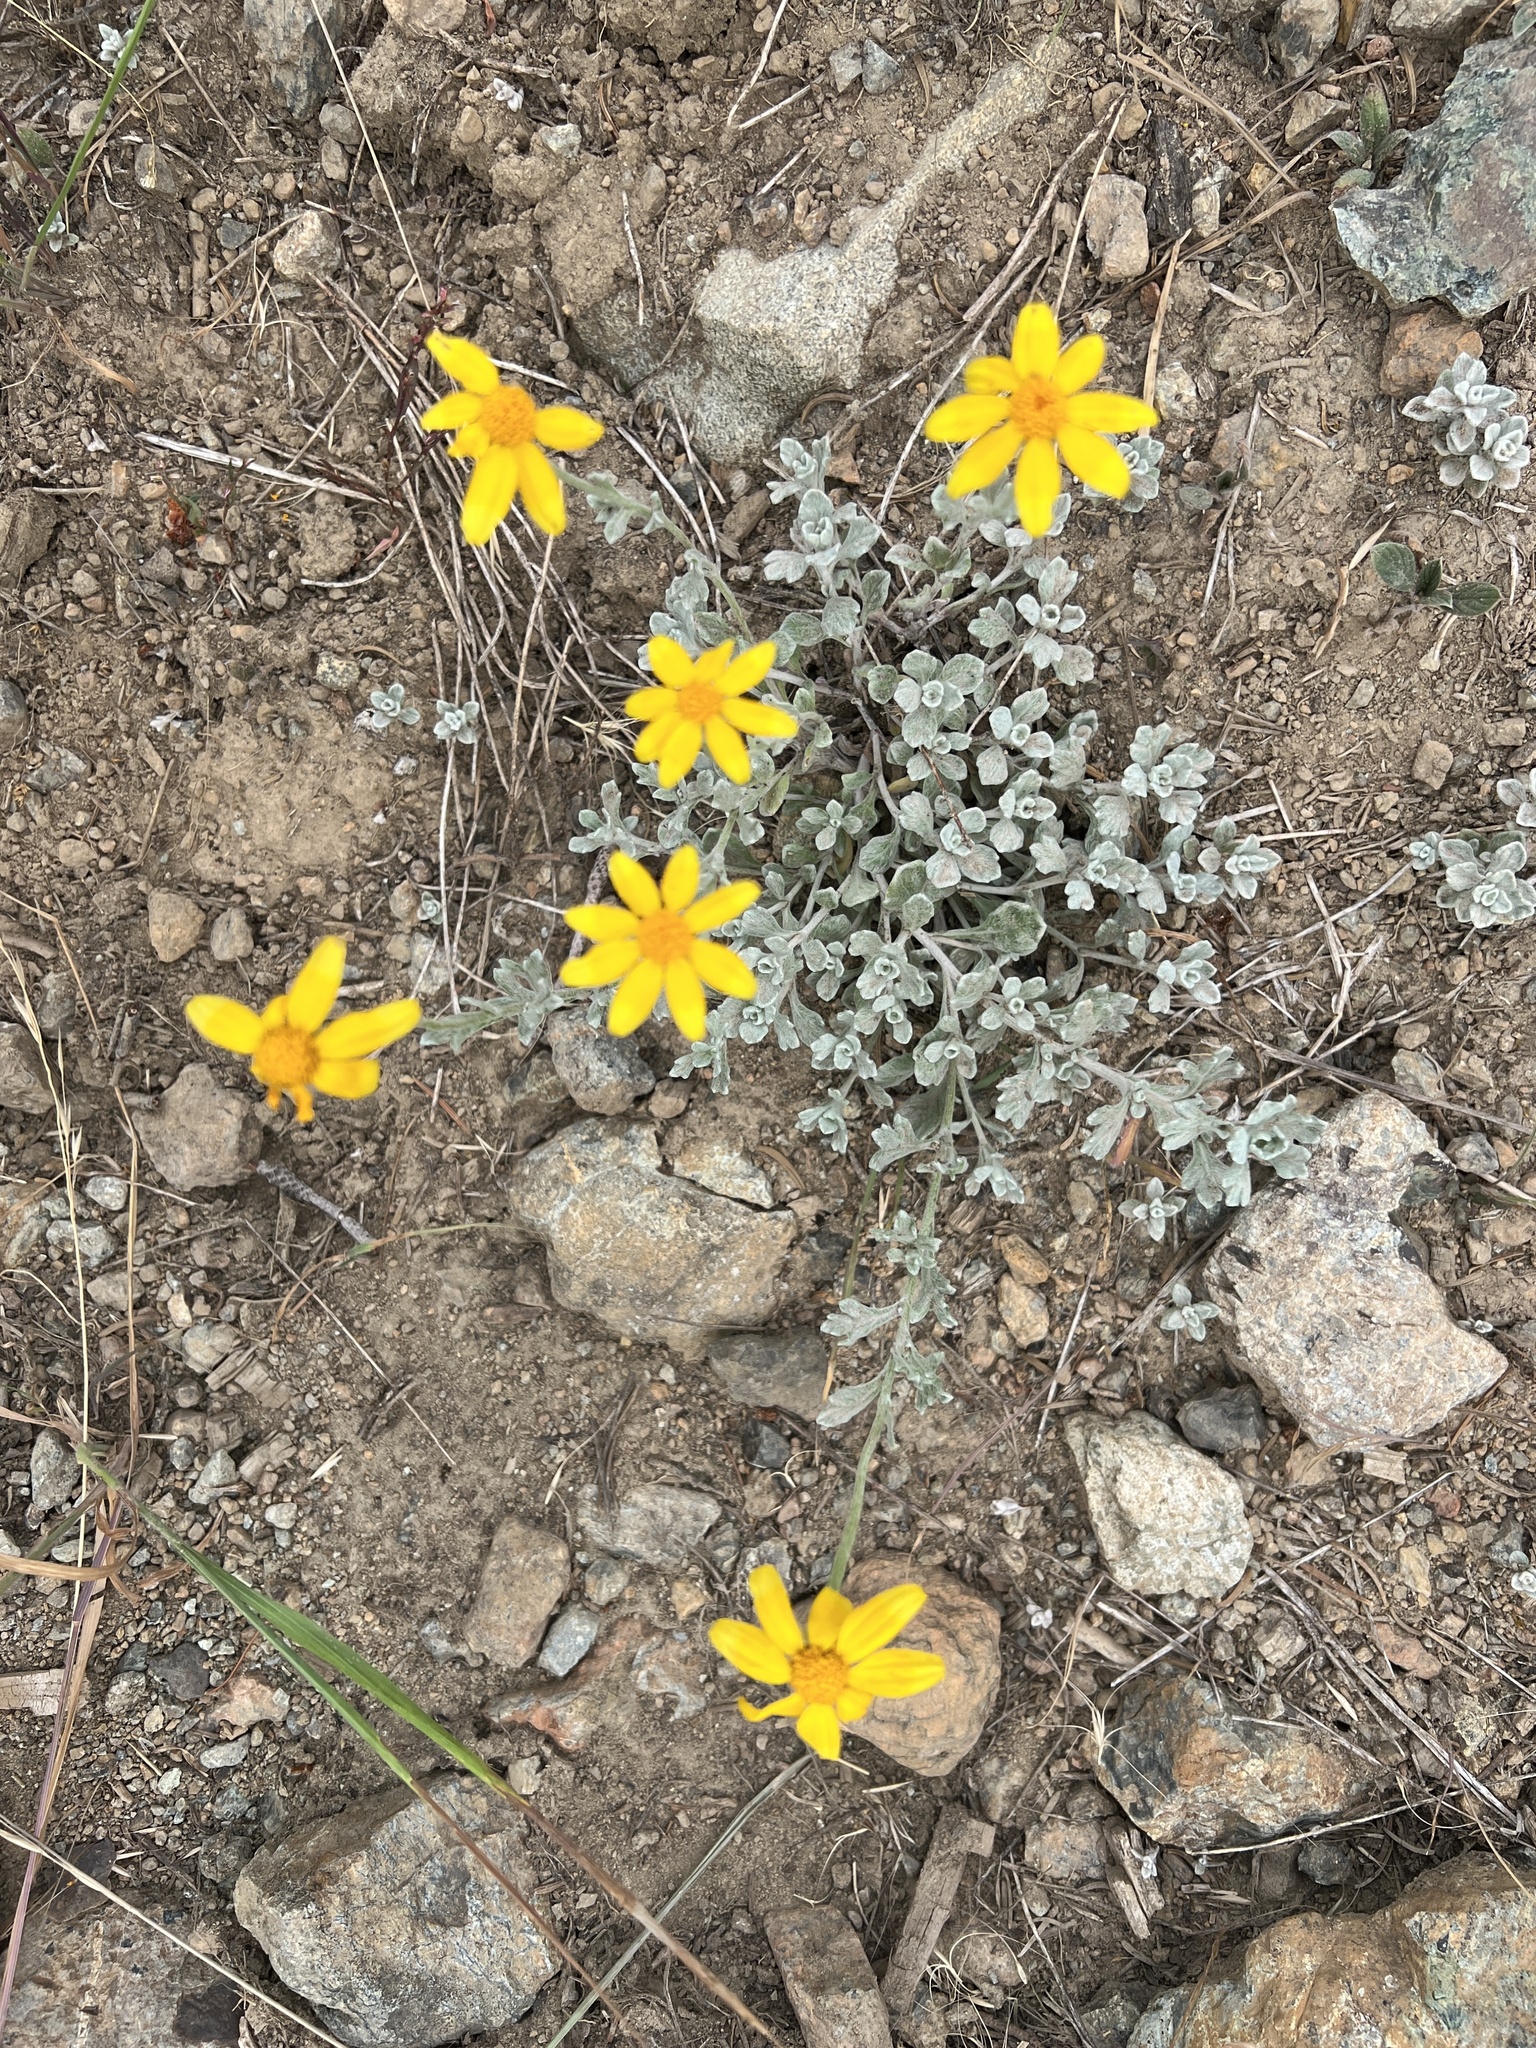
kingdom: Plantae
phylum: Tracheophyta
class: Magnoliopsida
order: Asterales
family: Asteraceae
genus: Eriophyllum
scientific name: Eriophyllum lanatum
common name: Common woolly-sunflower
